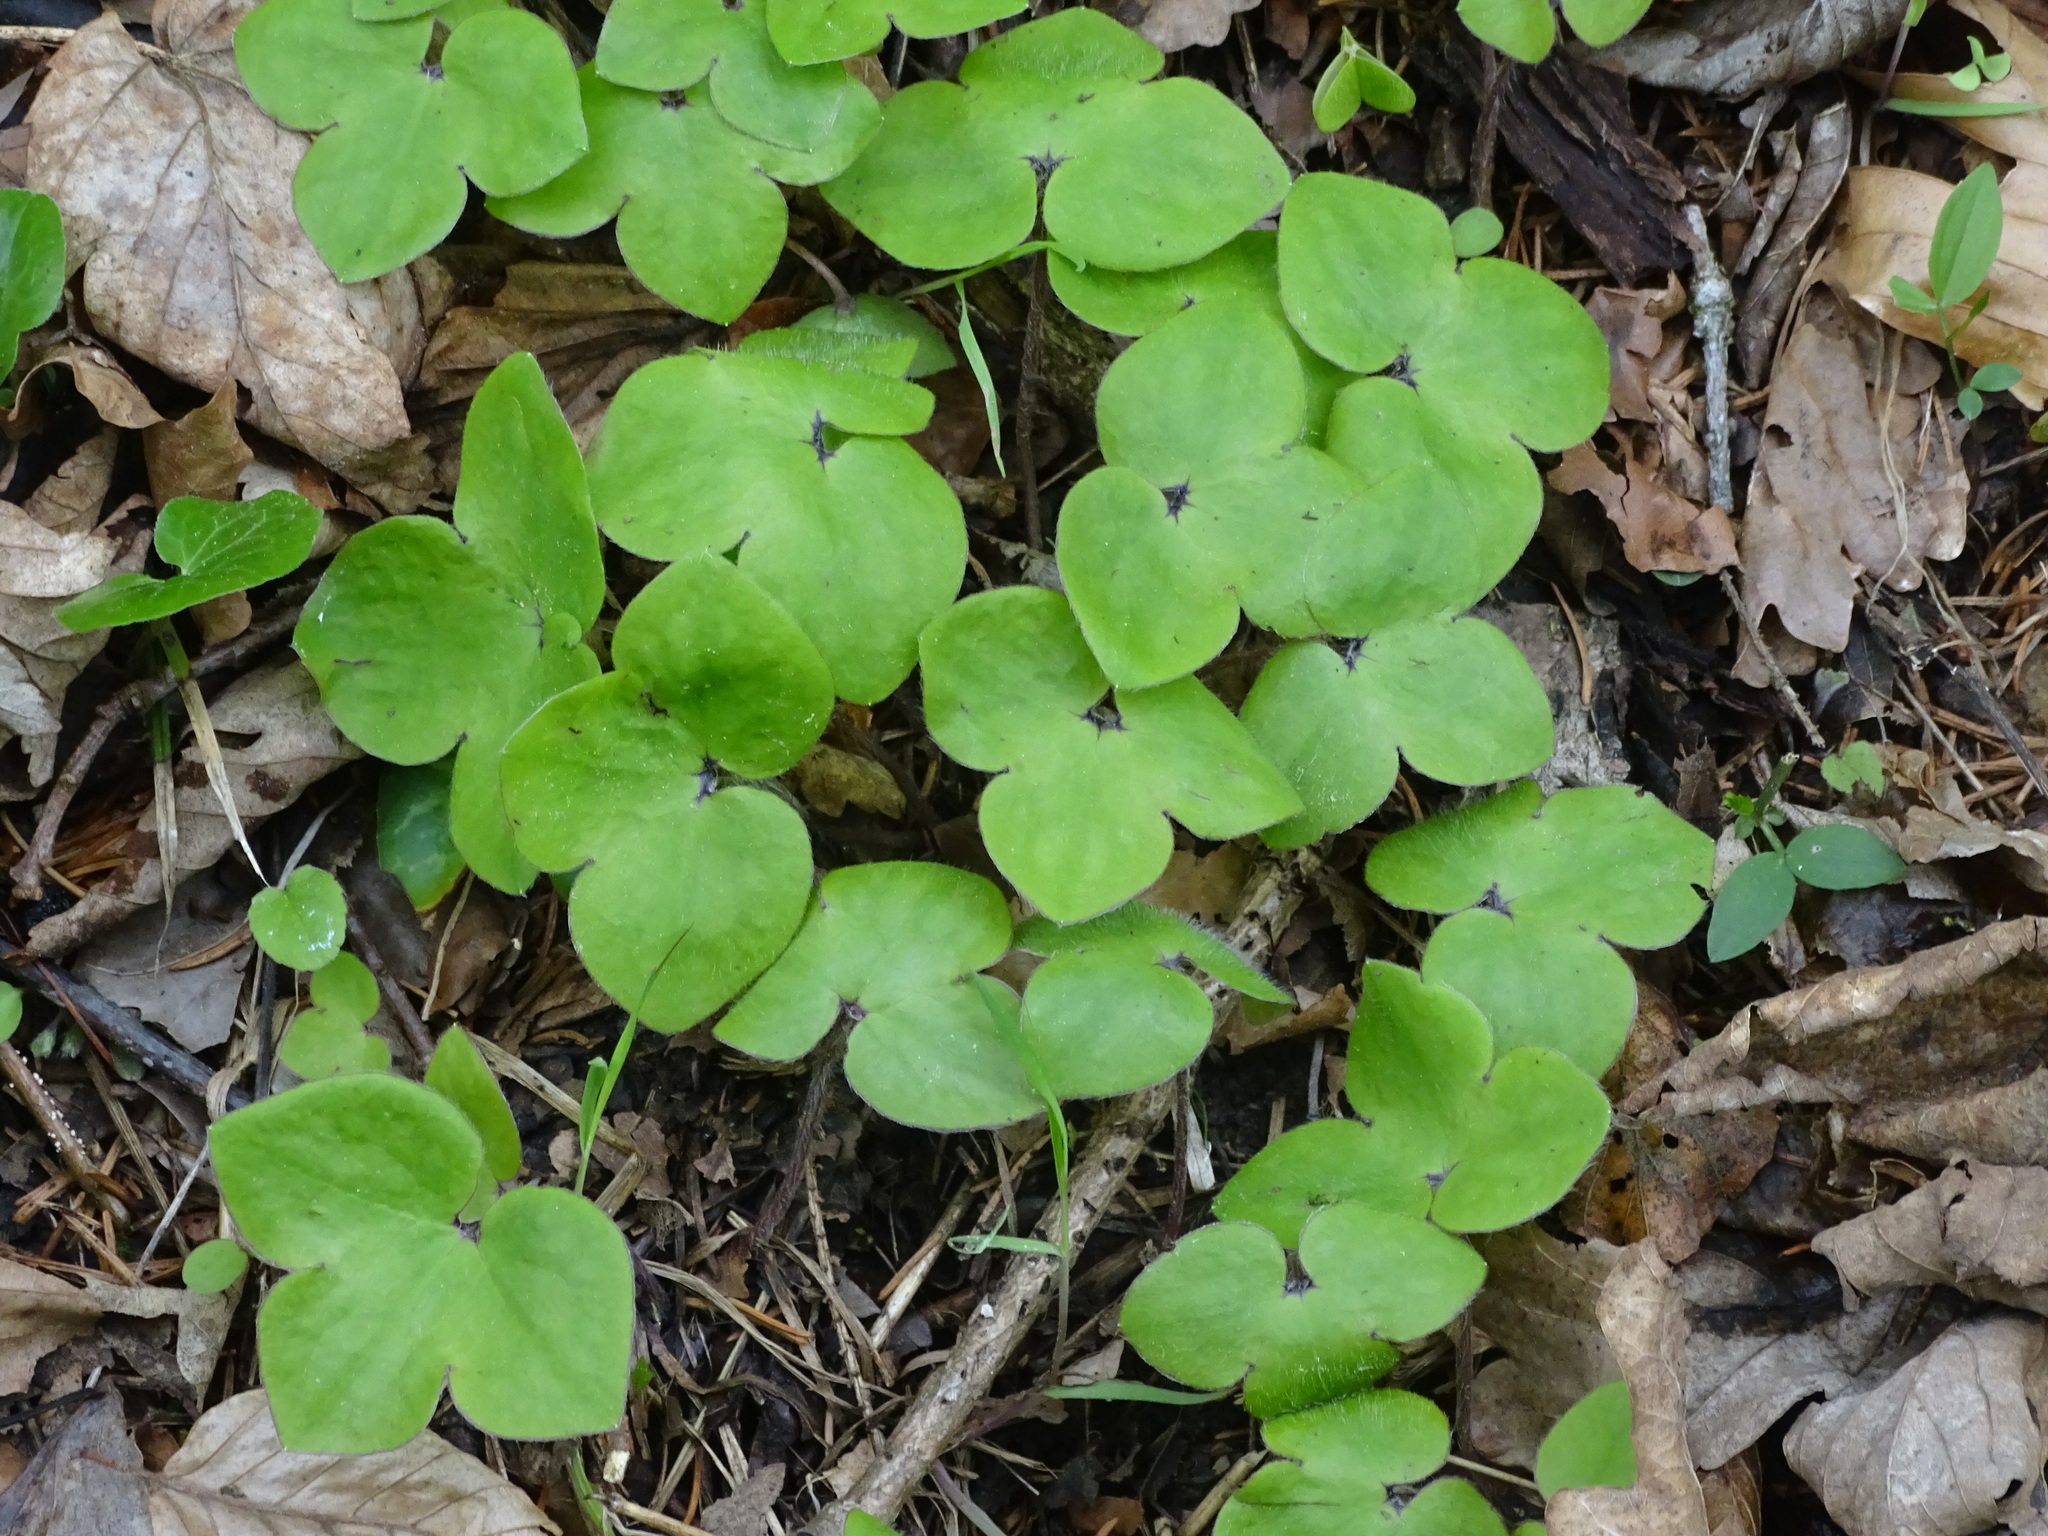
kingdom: Plantae
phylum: Tracheophyta
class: Magnoliopsida
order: Ranunculales
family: Ranunculaceae
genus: Hepatica
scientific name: Hepatica nobilis
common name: Liverleaf
